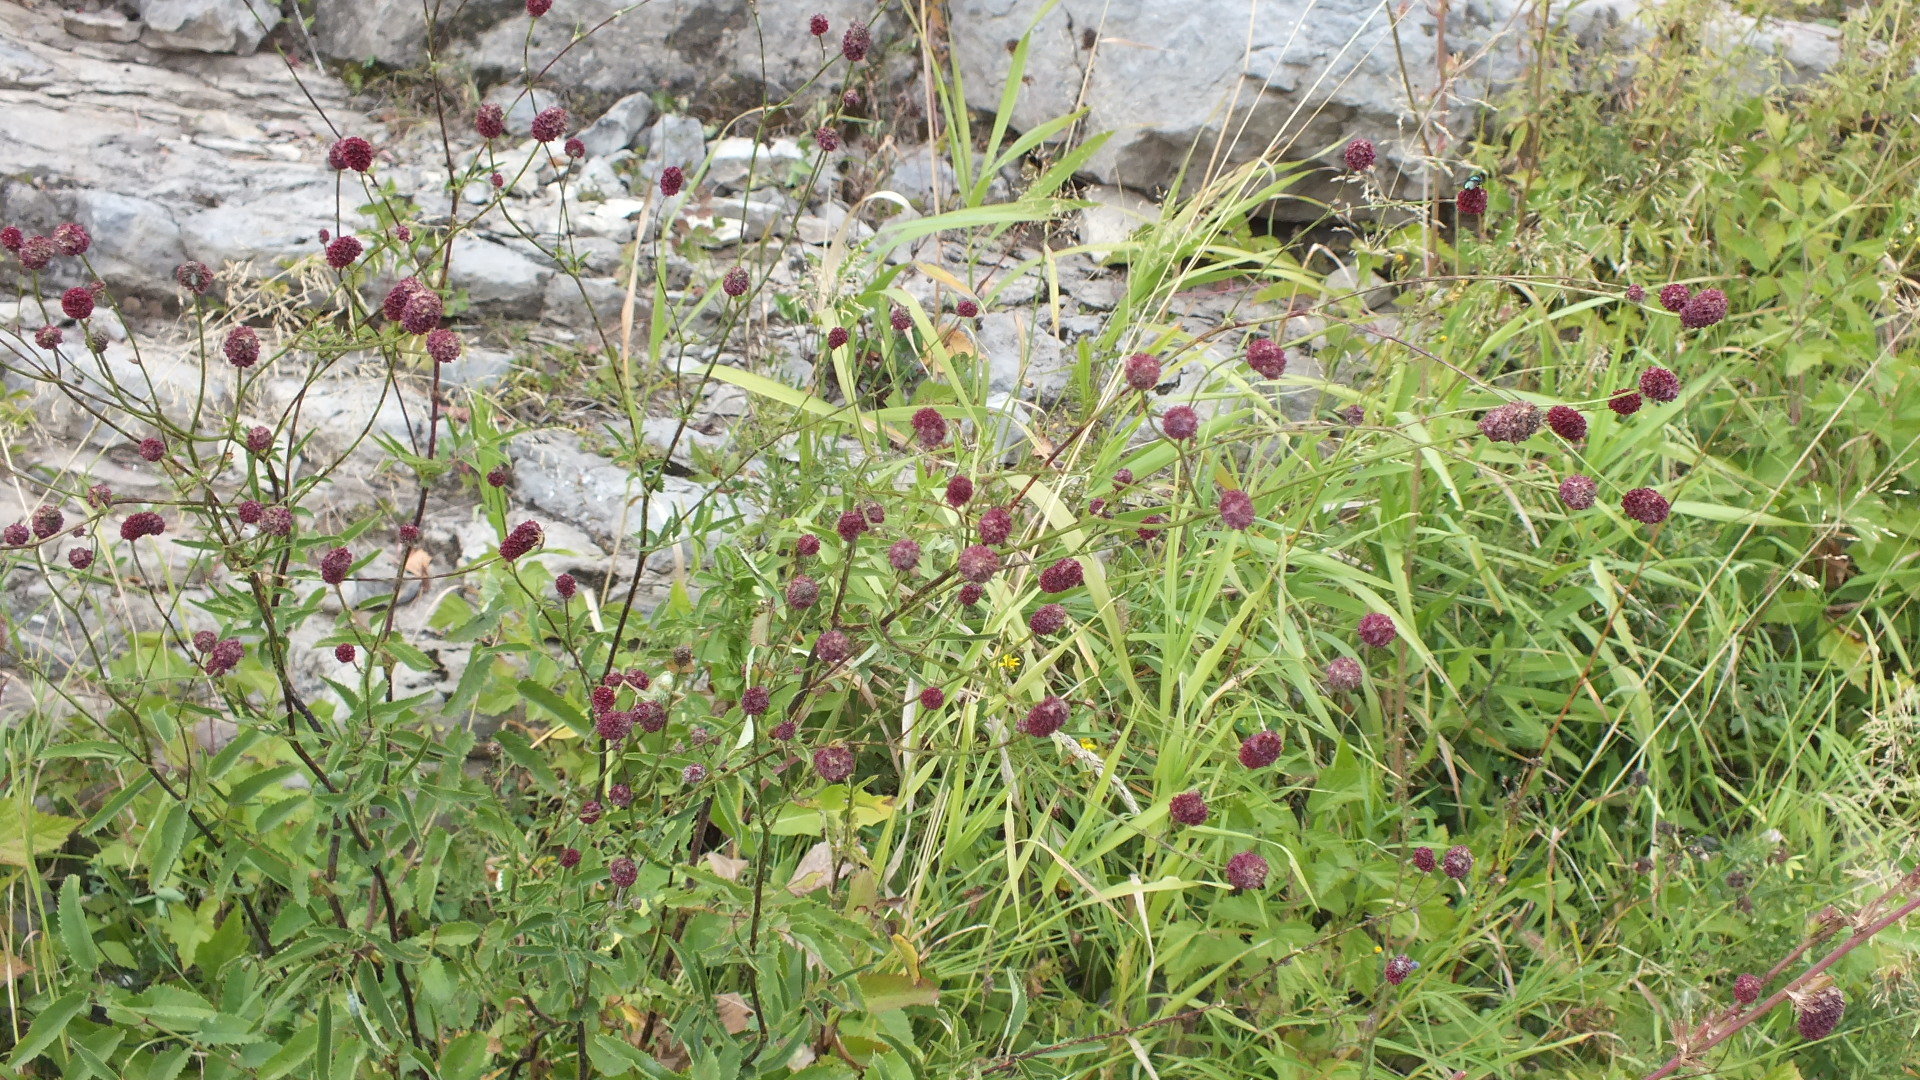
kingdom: Plantae
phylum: Tracheophyta
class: Magnoliopsida
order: Rosales
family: Rosaceae
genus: Sanguisorba
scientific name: Sanguisorba officinalis
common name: Great burnet
